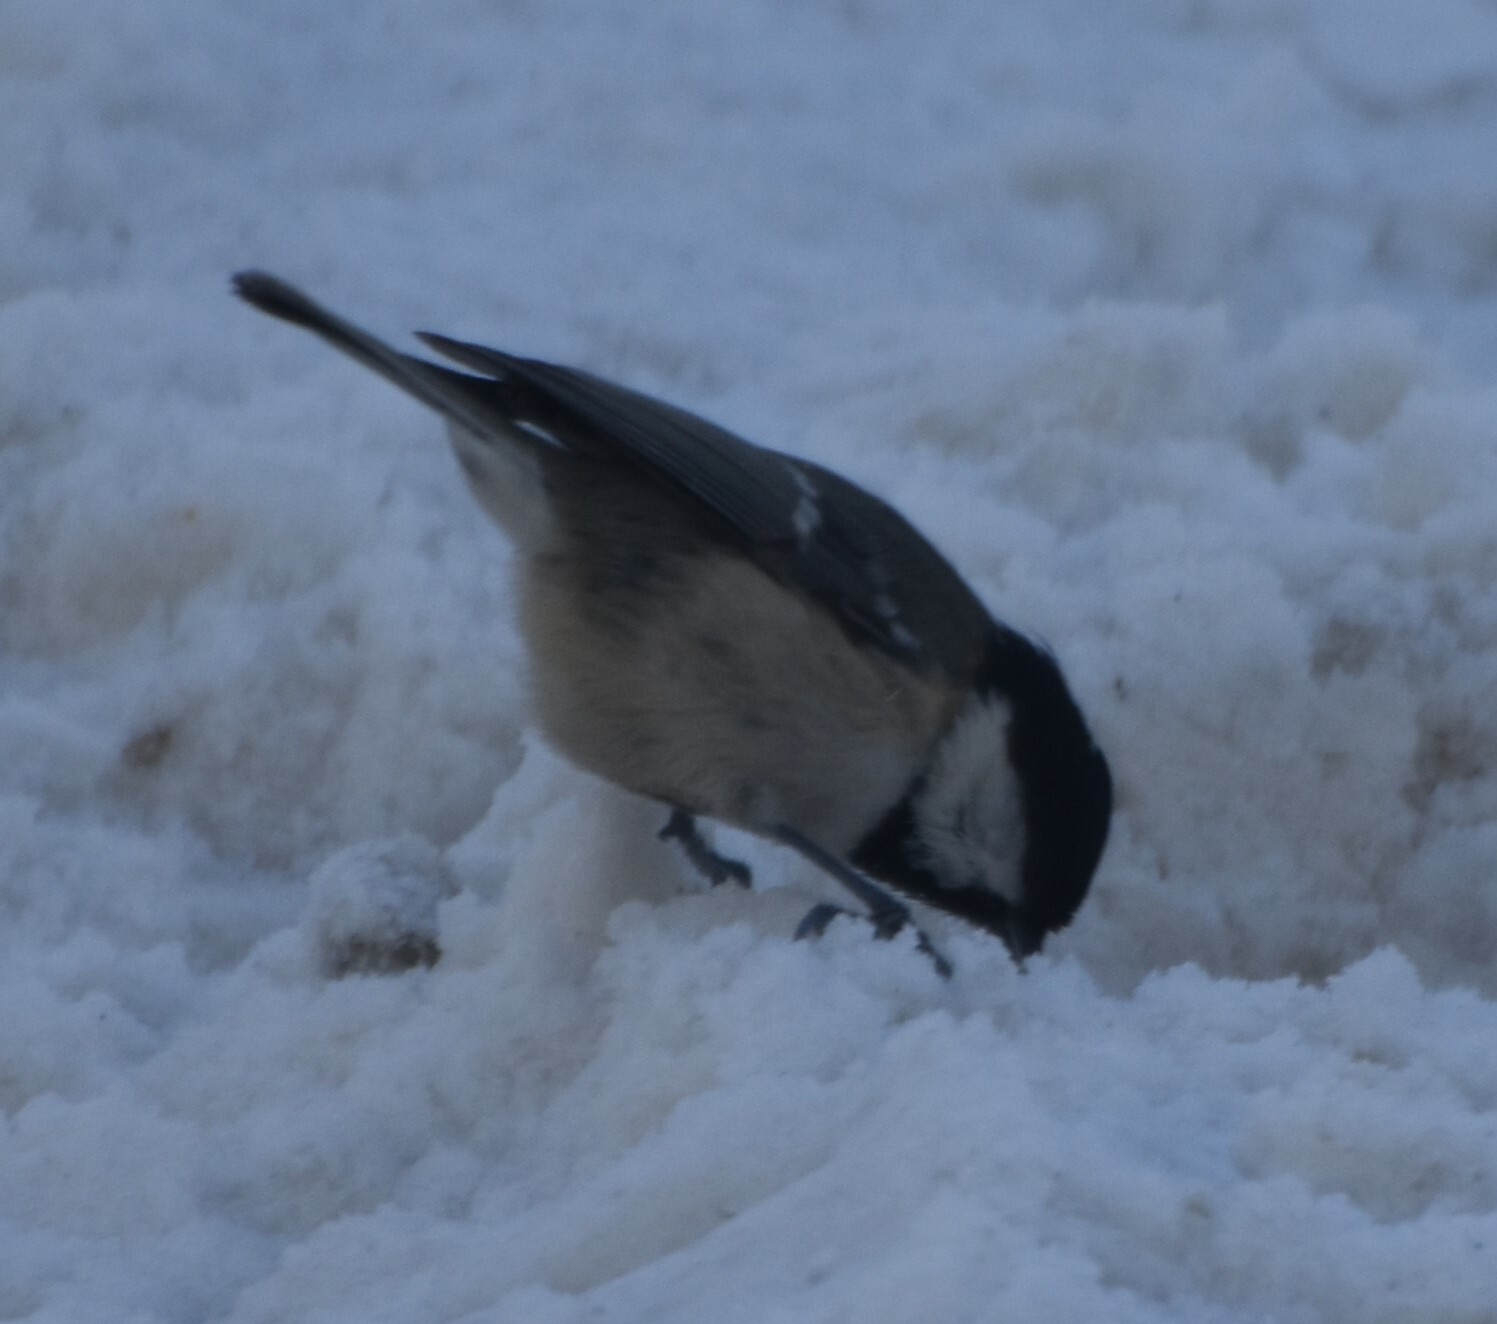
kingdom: Animalia
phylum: Chordata
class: Aves
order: Passeriformes
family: Paridae
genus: Periparus
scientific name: Periparus ater
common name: Coal tit
